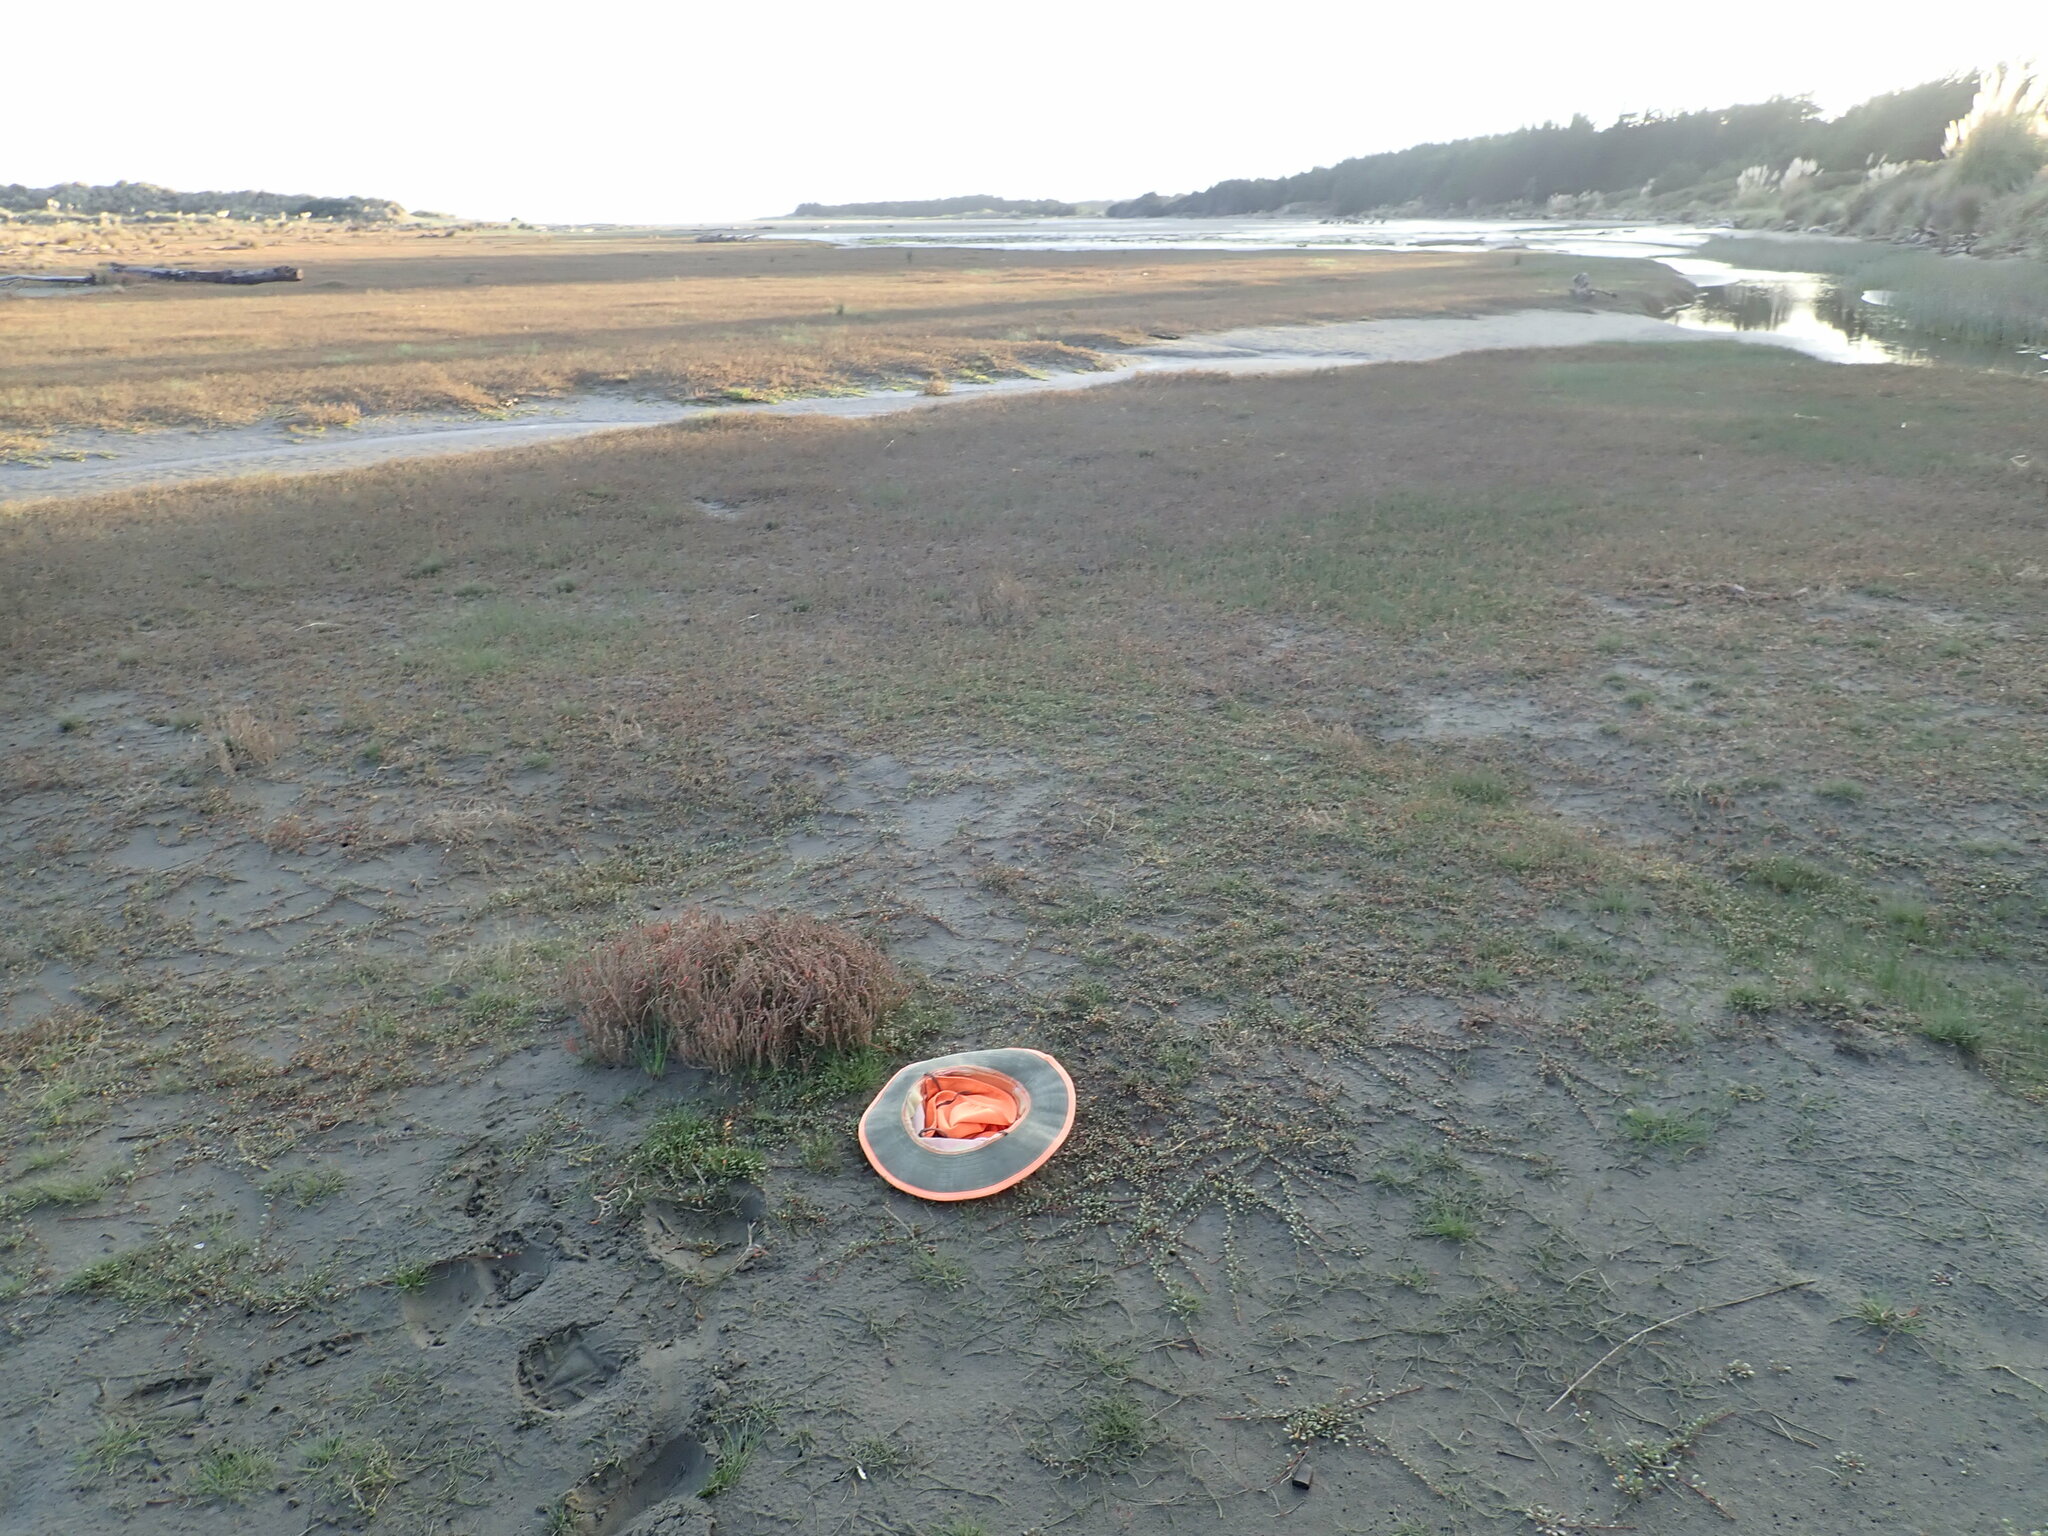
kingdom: Plantae
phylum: Tracheophyta
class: Magnoliopsida
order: Caryophyllales
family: Amaranthaceae
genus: Salicornia
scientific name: Salicornia quinqueflora
